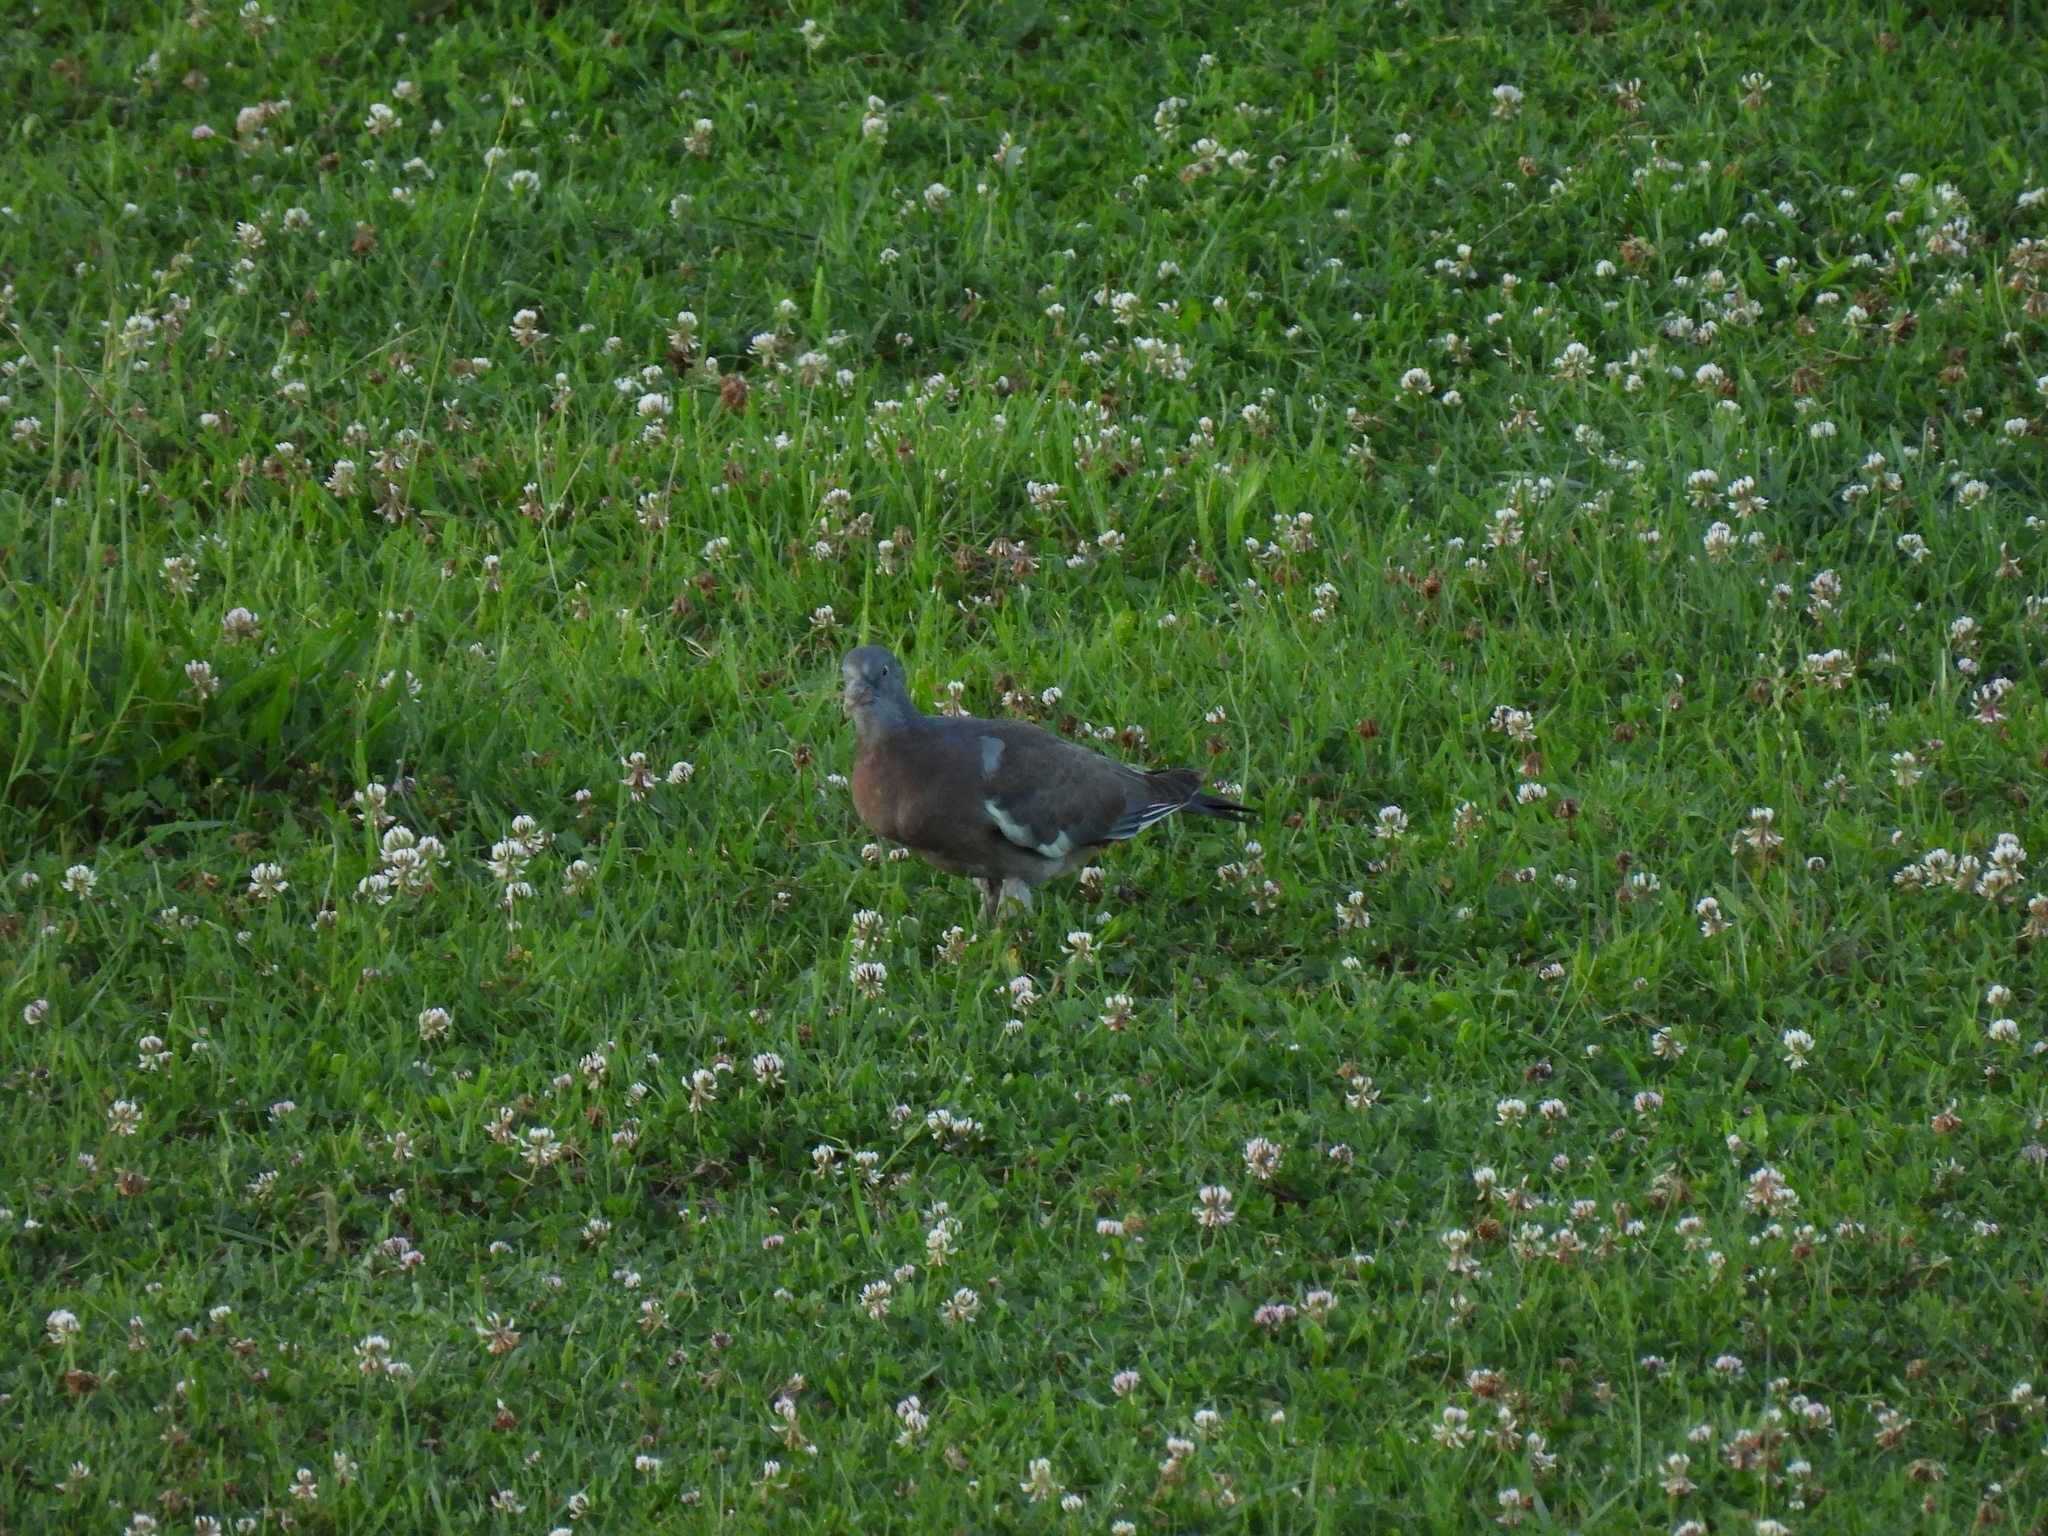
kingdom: Animalia
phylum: Chordata
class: Aves
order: Columbiformes
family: Columbidae
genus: Columba
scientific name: Columba palumbus
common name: Common wood pigeon
